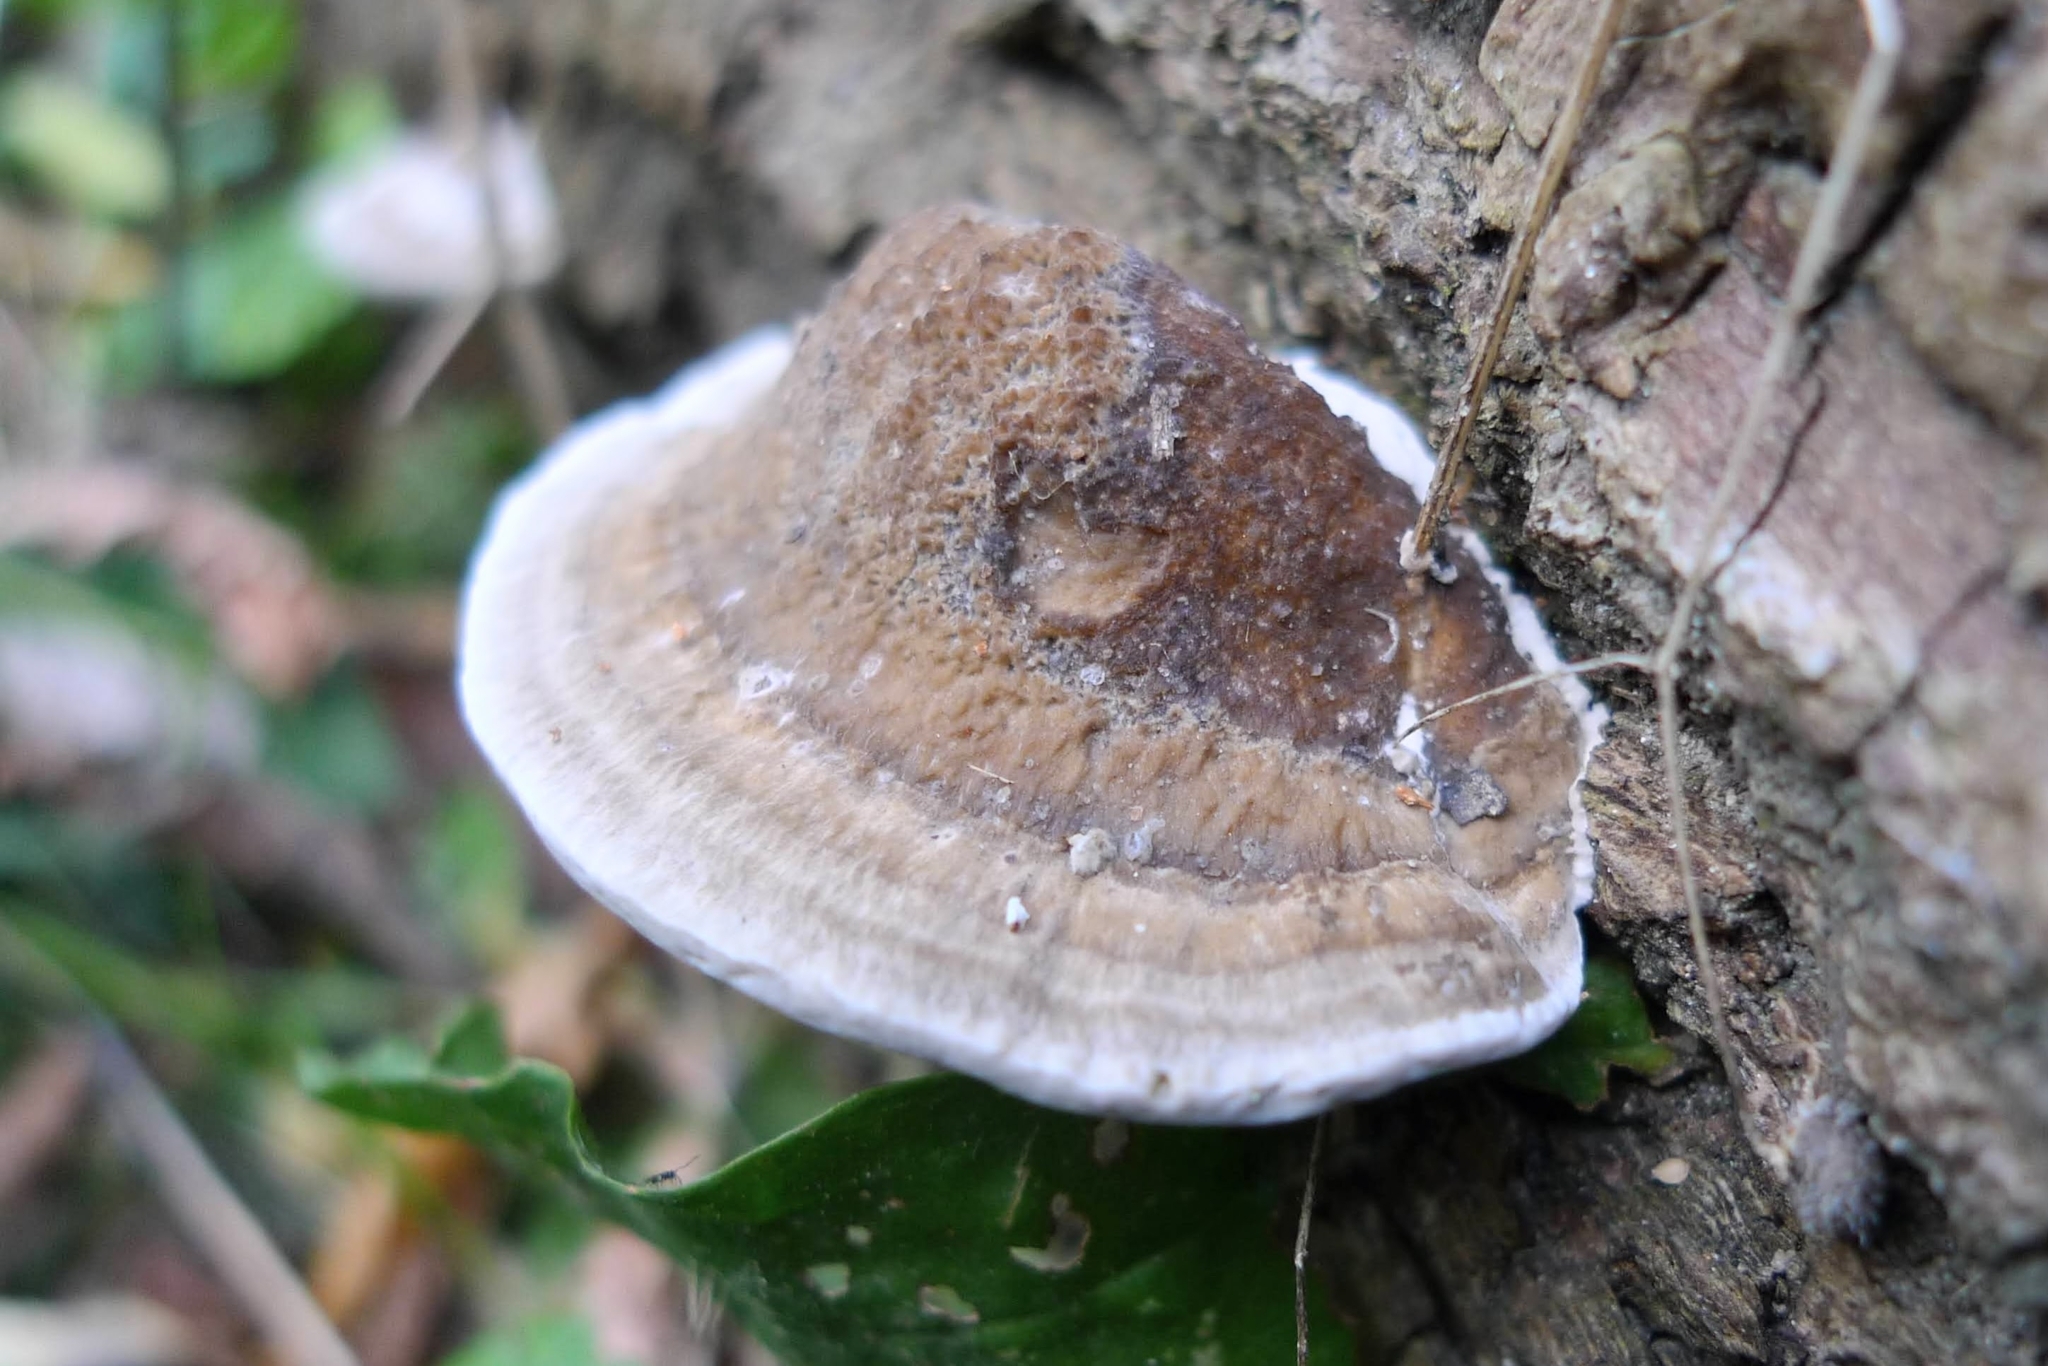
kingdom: Fungi
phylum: Basidiomycota
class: Agaricomycetes
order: Polyporales
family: Fomitopsidaceae
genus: Fomitopsis
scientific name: Fomitopsis
